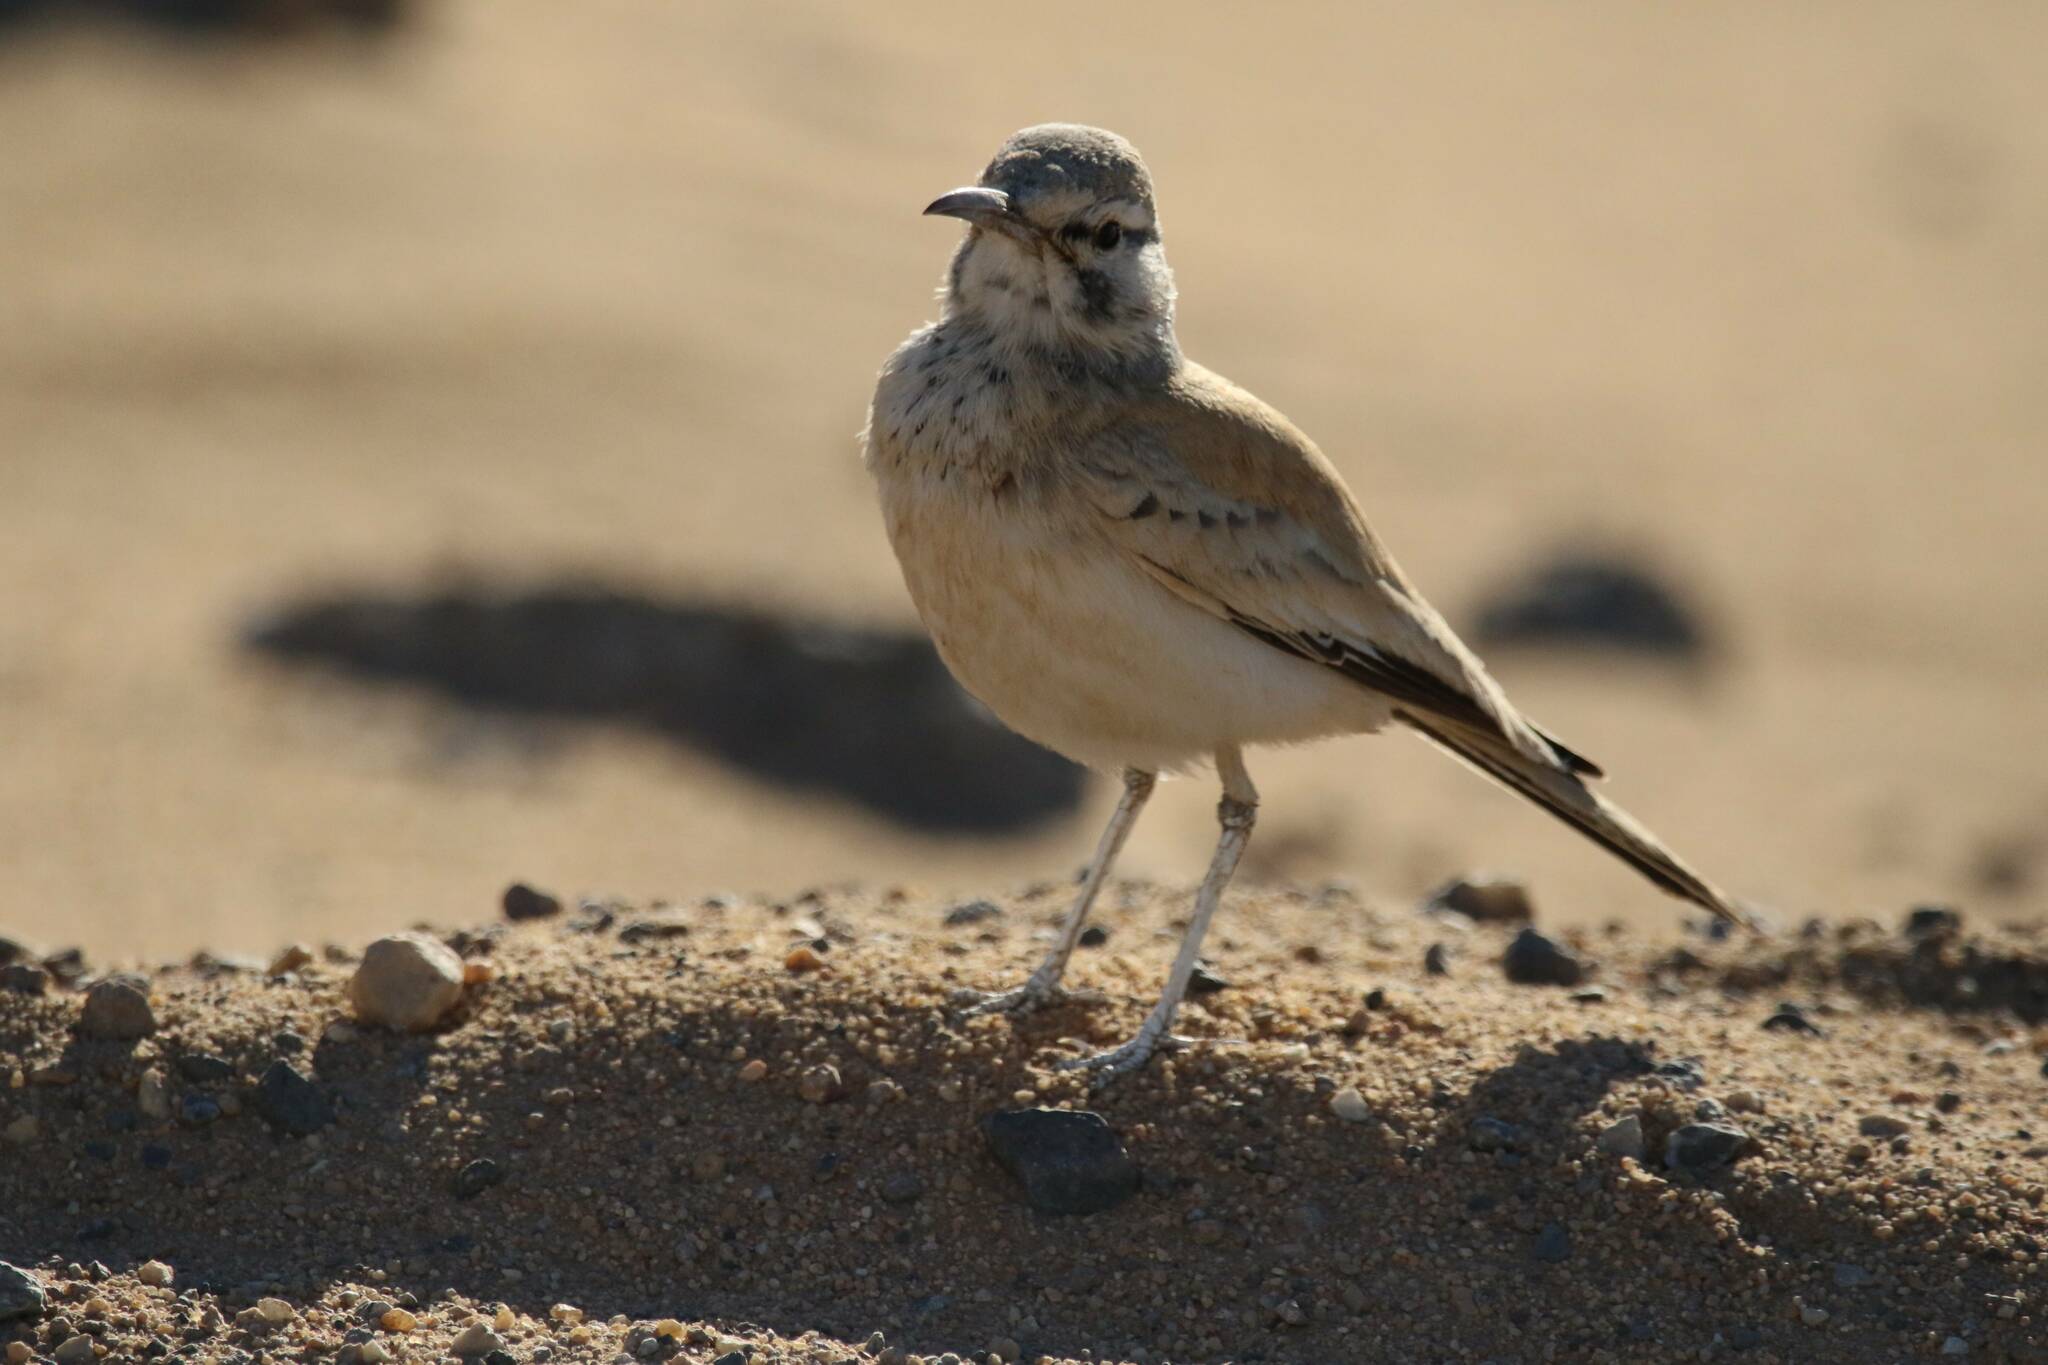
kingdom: Animalia
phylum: Chordata
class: Aves
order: Passeriformes
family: Alaudidae
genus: Alaemon
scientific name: Alaemon alaudipes
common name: Greater hoopoe-lark
